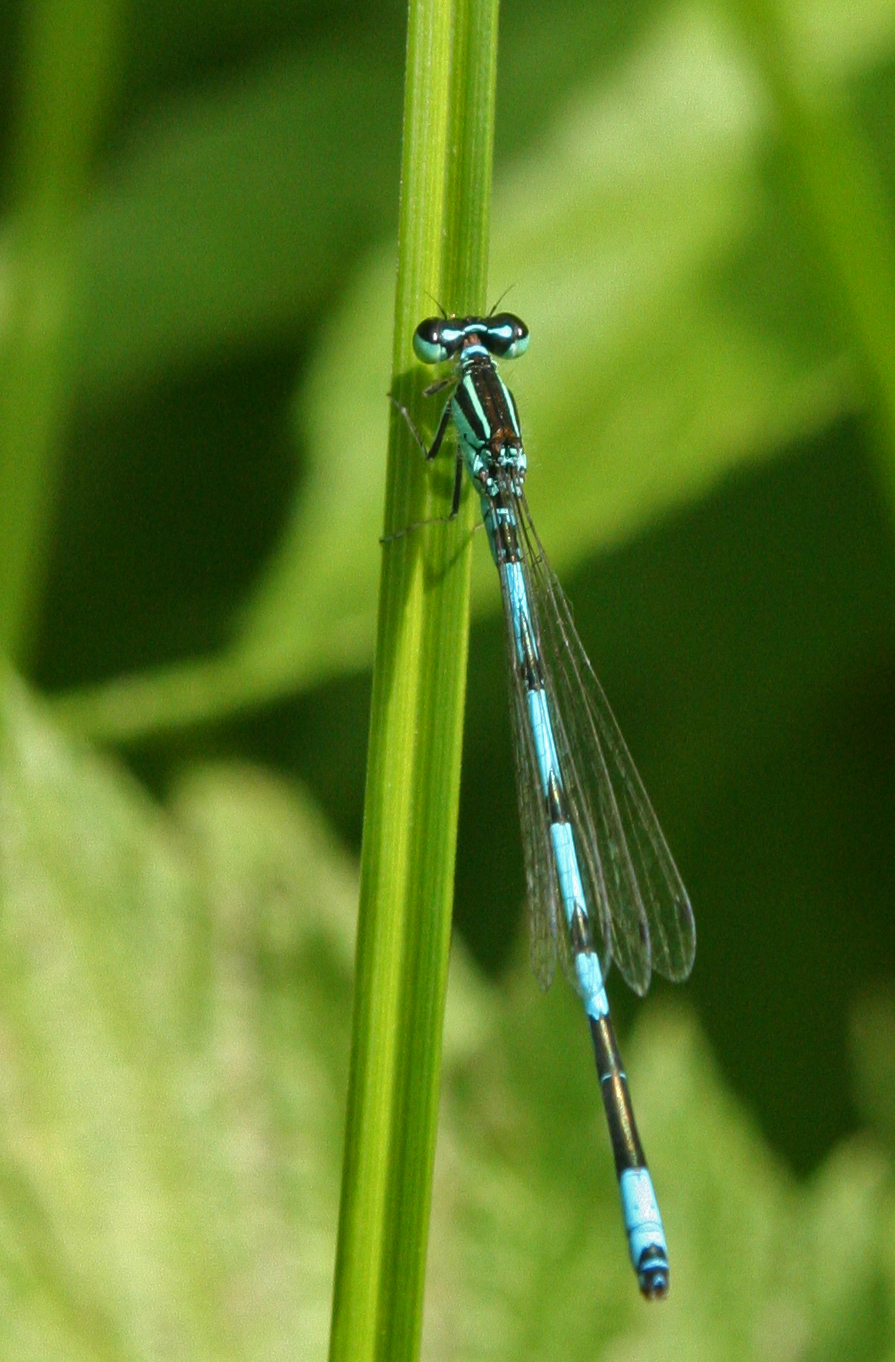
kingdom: Animalia
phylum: Arthropoda
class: Insecta
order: Odonata
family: Coenagrionidae
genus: Coenagrion
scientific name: Coenagrion ecornutum
